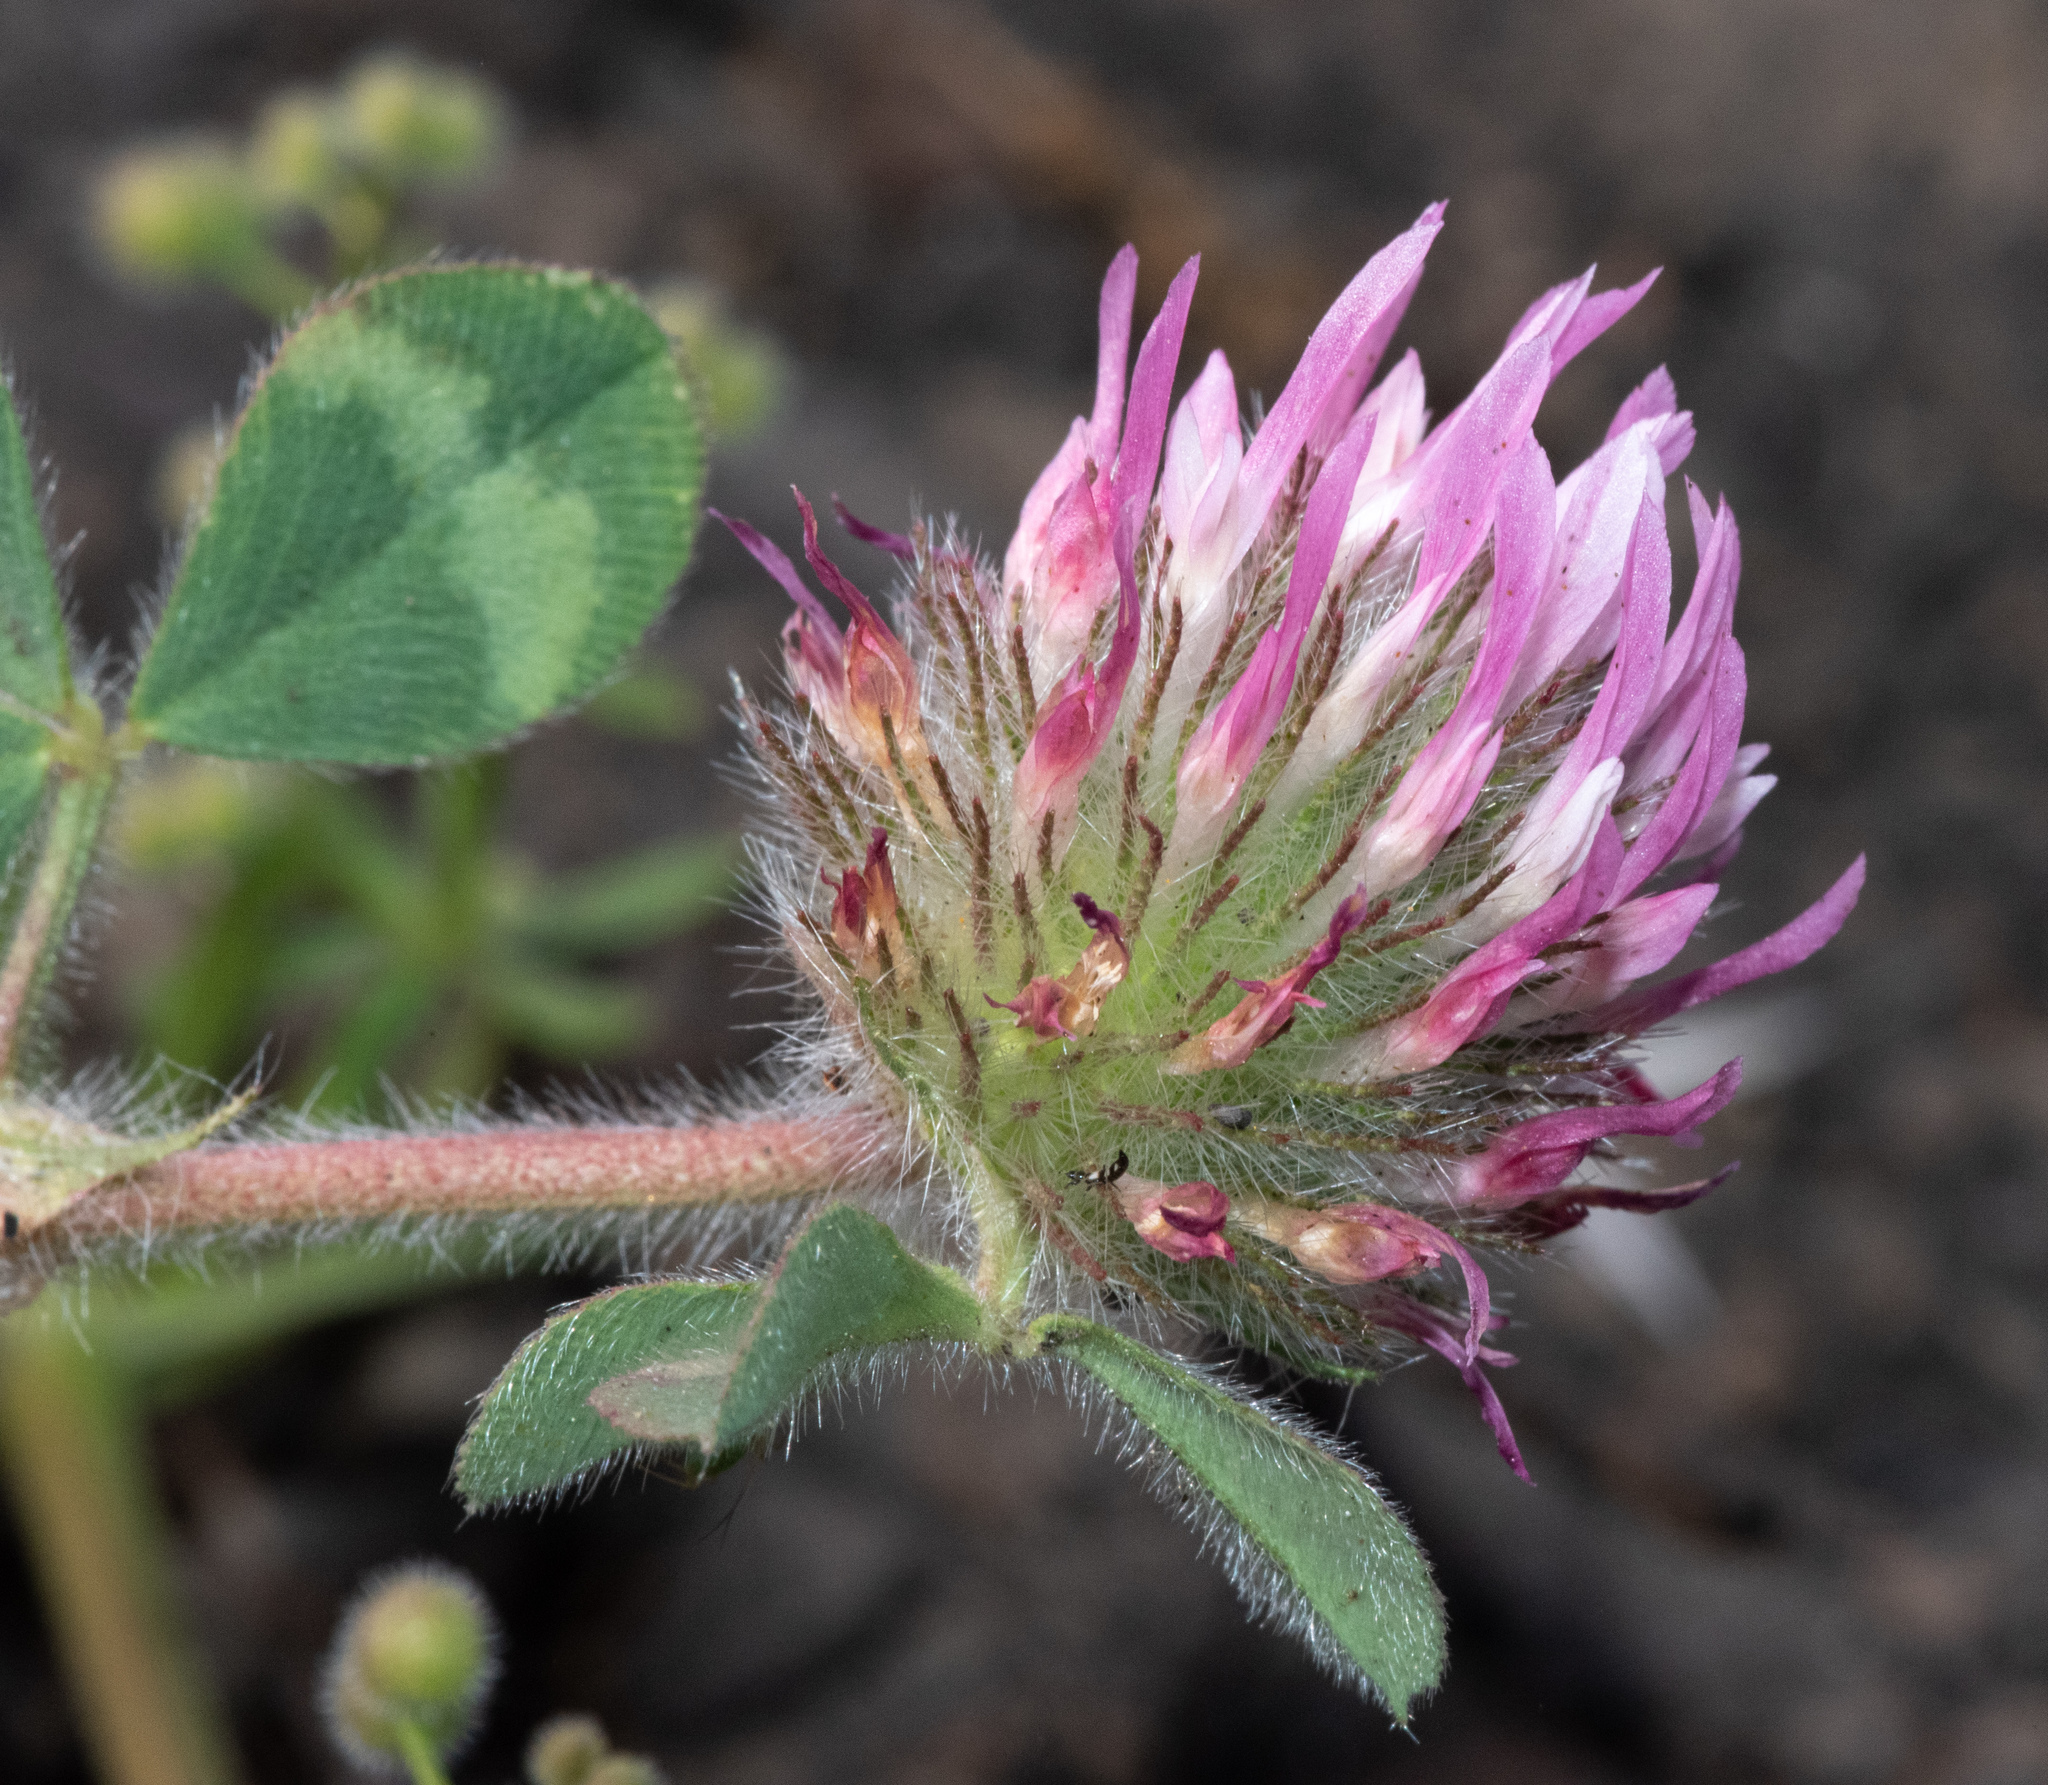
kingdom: Plantae
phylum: Tracheophyta
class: Magnoliopsida
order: Fabales
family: Fabaceae
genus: Trifolium
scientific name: Trifolium hirtum
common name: Rose clover
